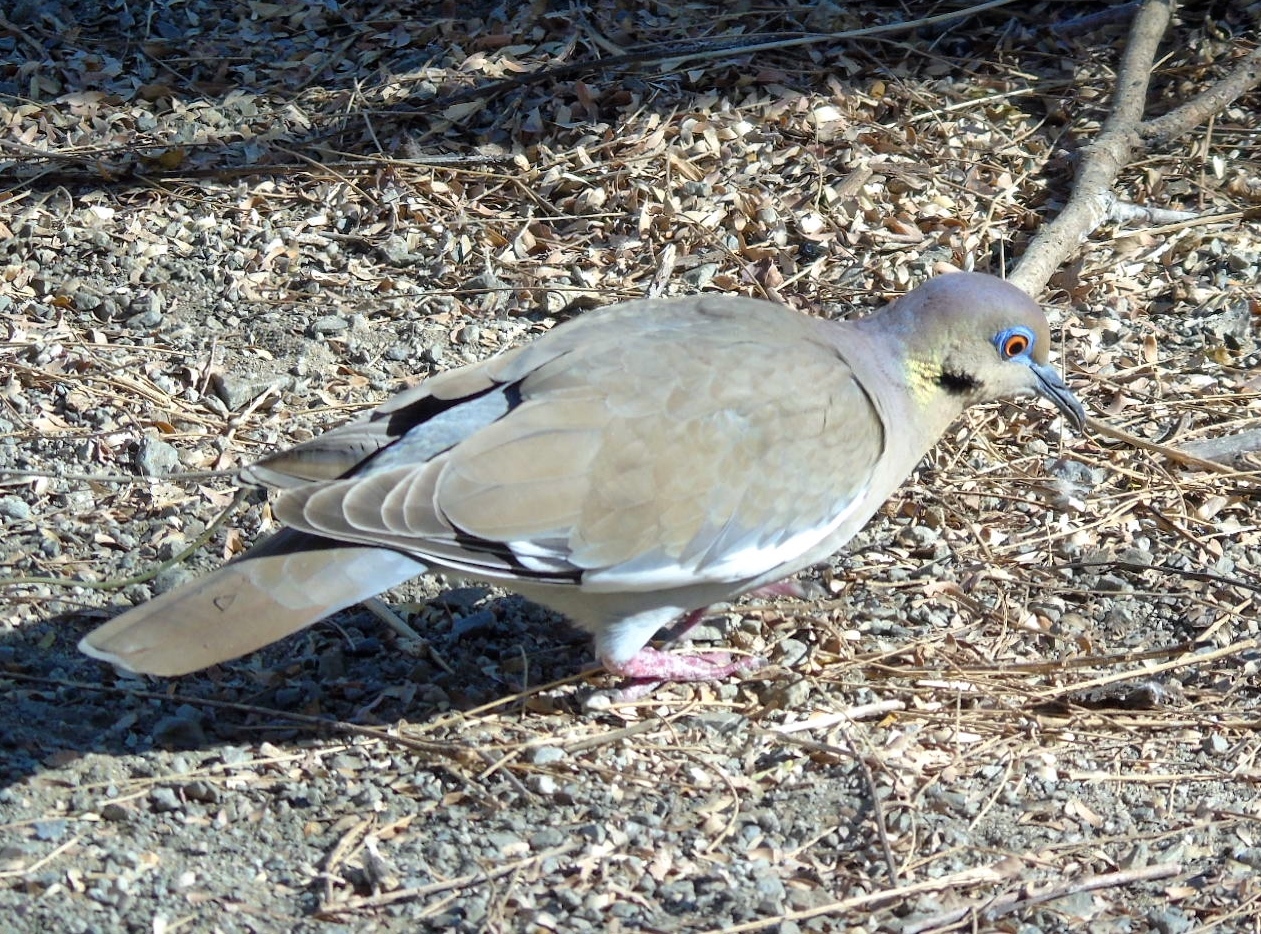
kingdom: Animalia
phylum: Chordata
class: Aves
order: Columbiformes
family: Columbidae
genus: Zenaida
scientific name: Zenaida asiatica
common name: White-winged dove
